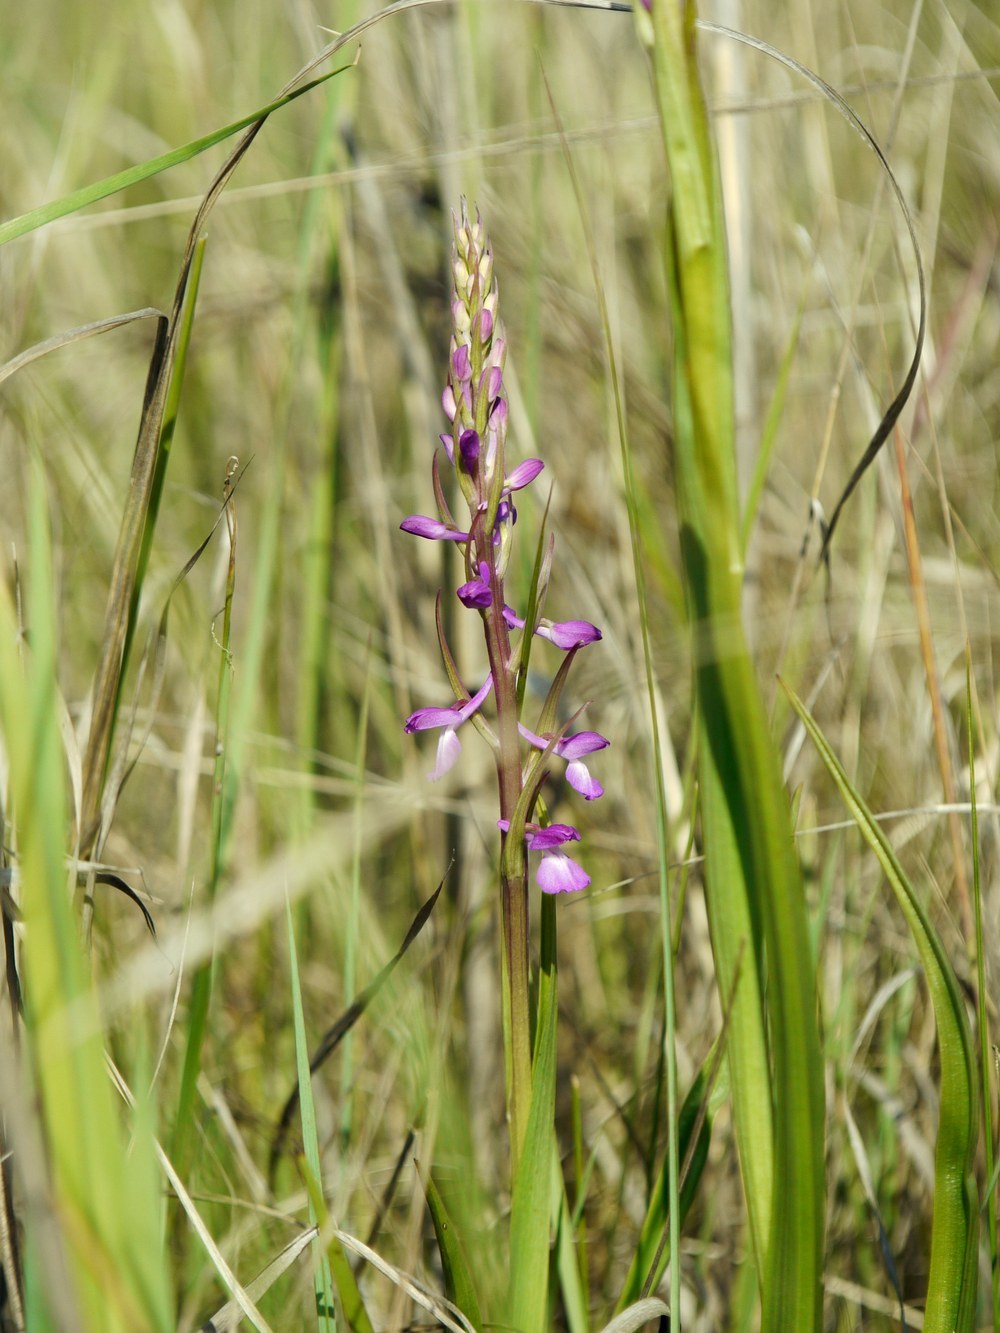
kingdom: Plantae
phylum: Tracheophyta
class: Liliopsida
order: Asparagales
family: Orchidaceae
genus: Anacamptis
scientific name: Anacamptis palustris
